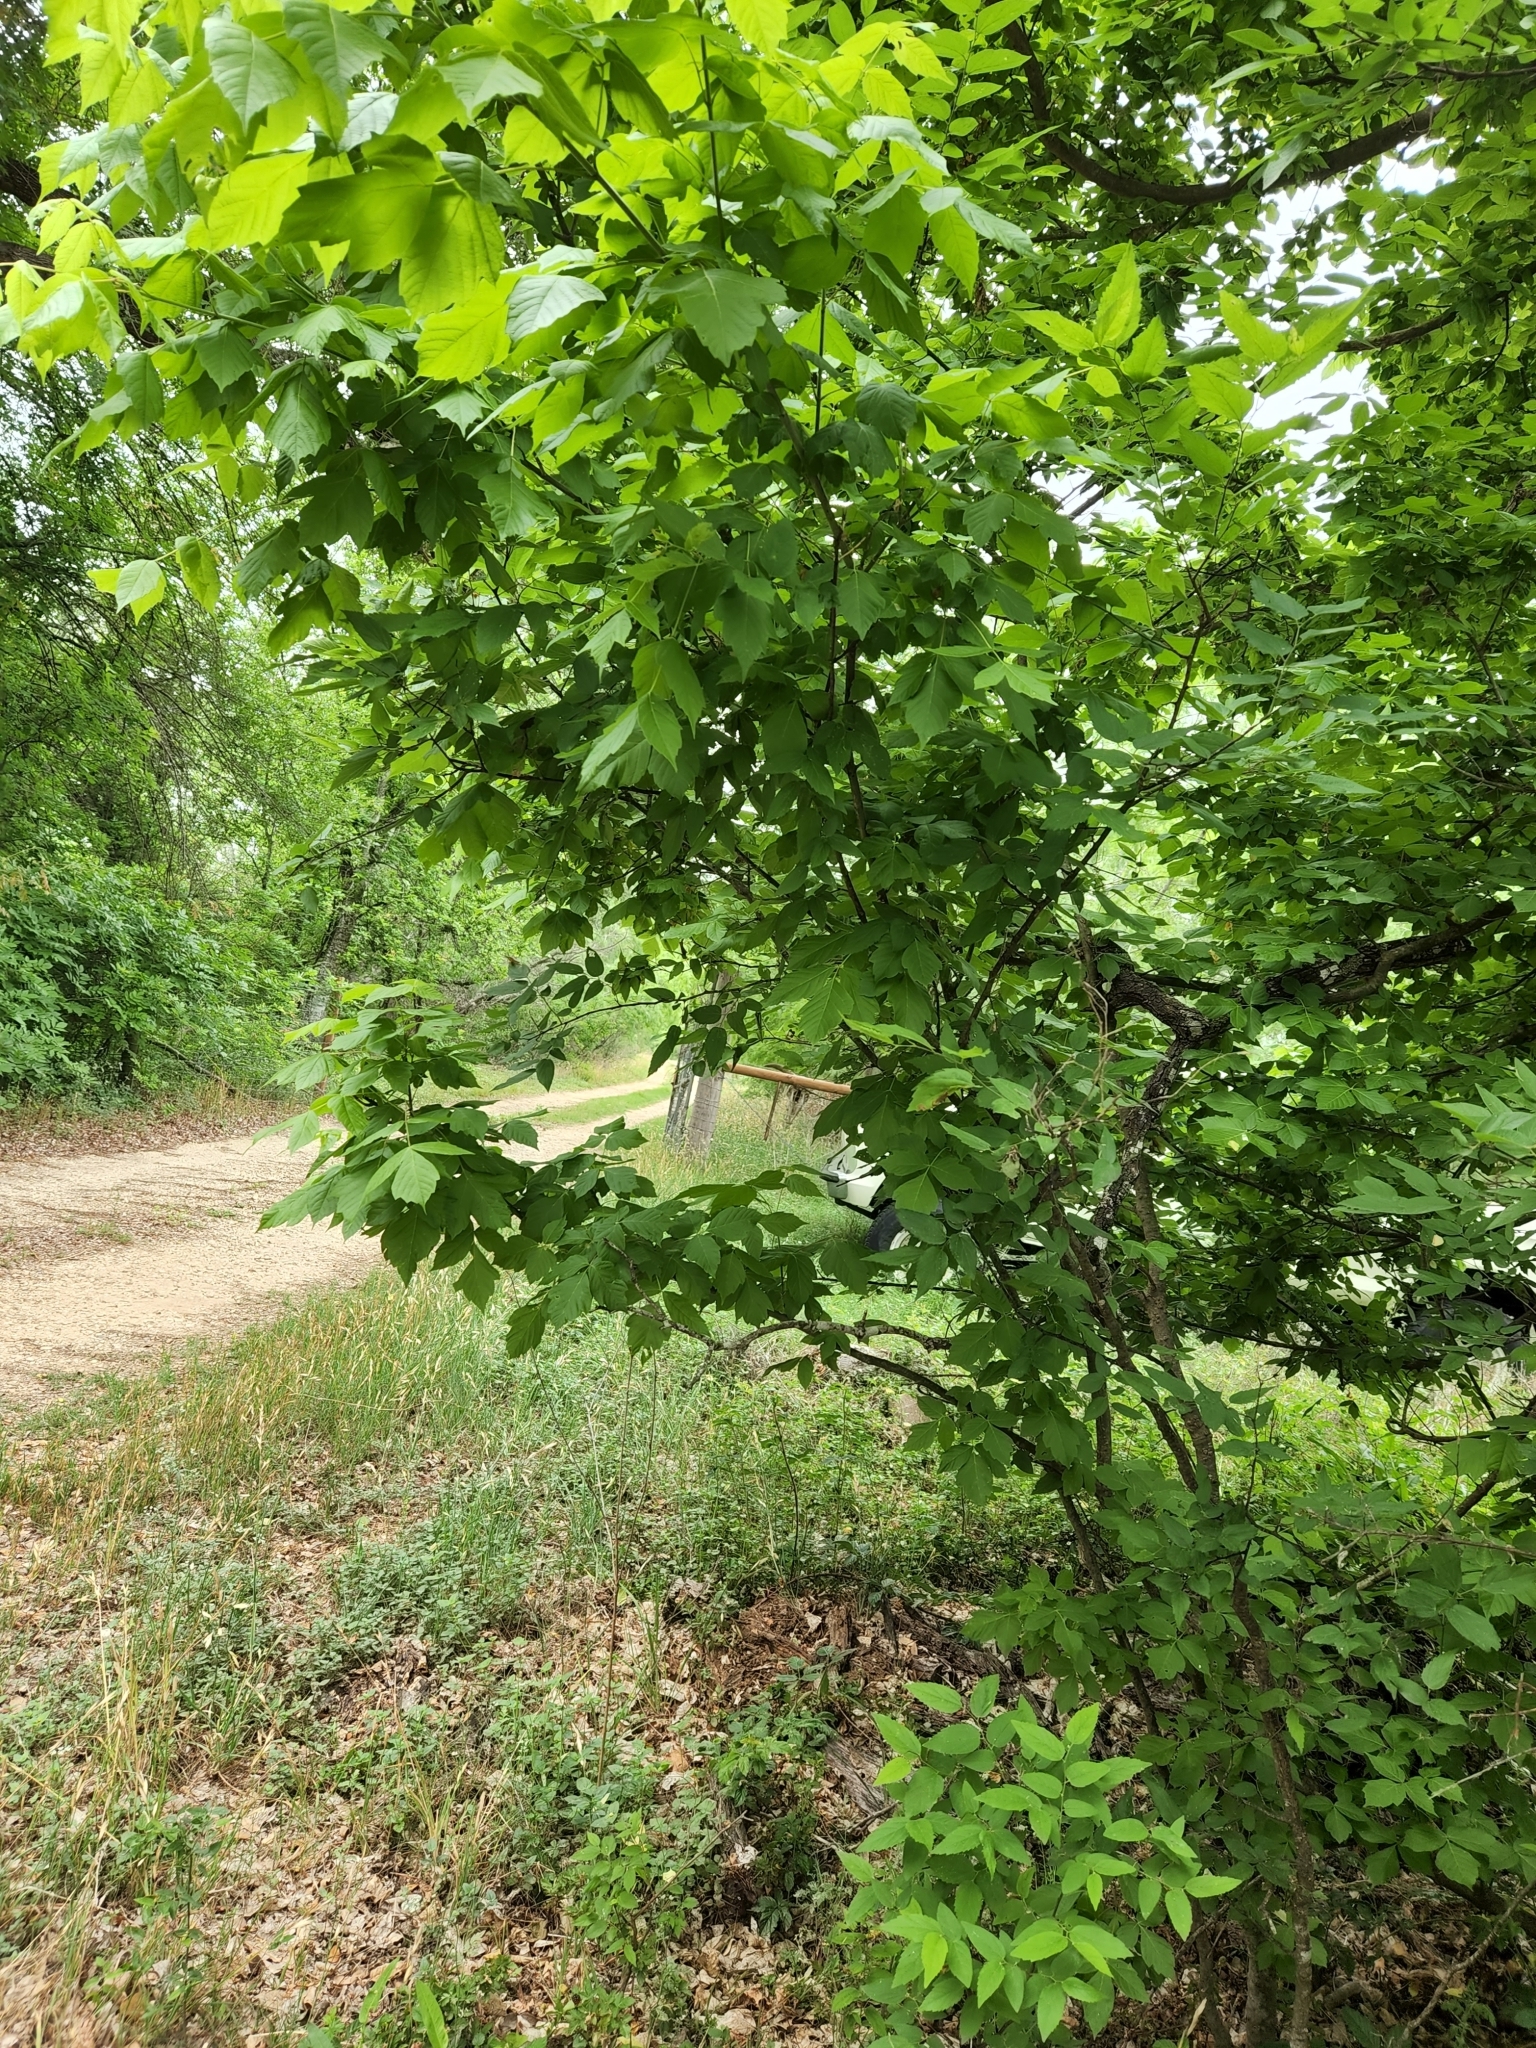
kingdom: Plantae
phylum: Tracheophyta
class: Magnoliopsida
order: Sapindales
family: Sapindaceae
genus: Acer
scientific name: Acer negundo
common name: Ashleaf maple
